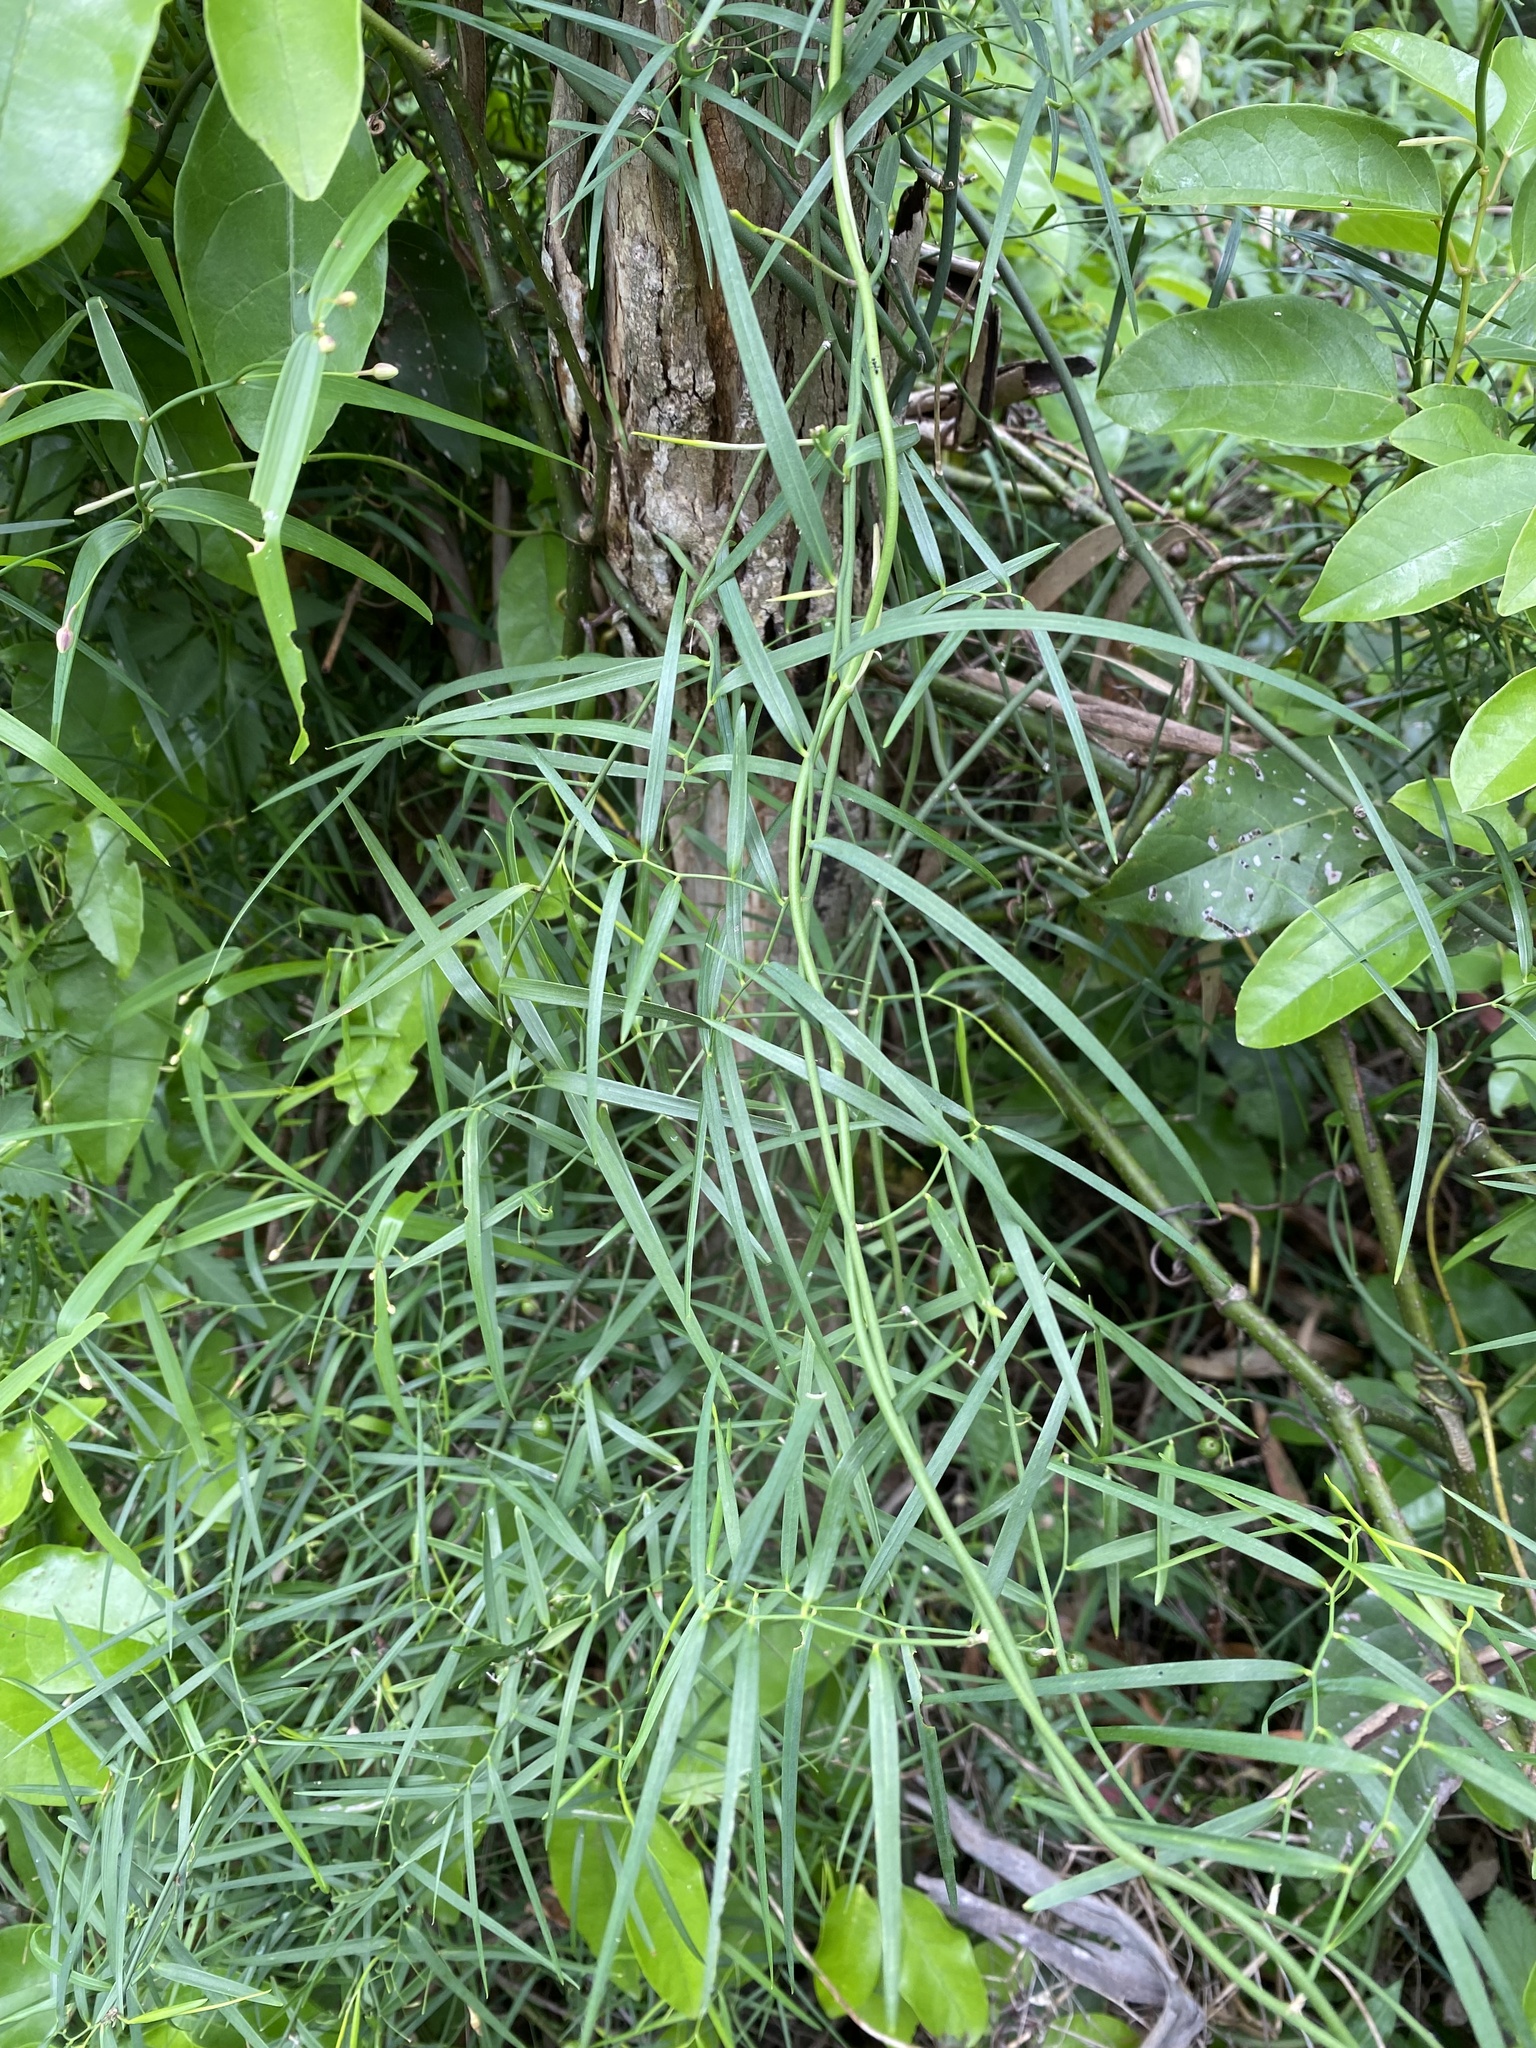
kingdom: Plantae
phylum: Tracheophyta
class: Liliopsida
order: Asparagales
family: Asphodelaceae
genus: Geitonoplesium
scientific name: Geitonoplesium cymosum
